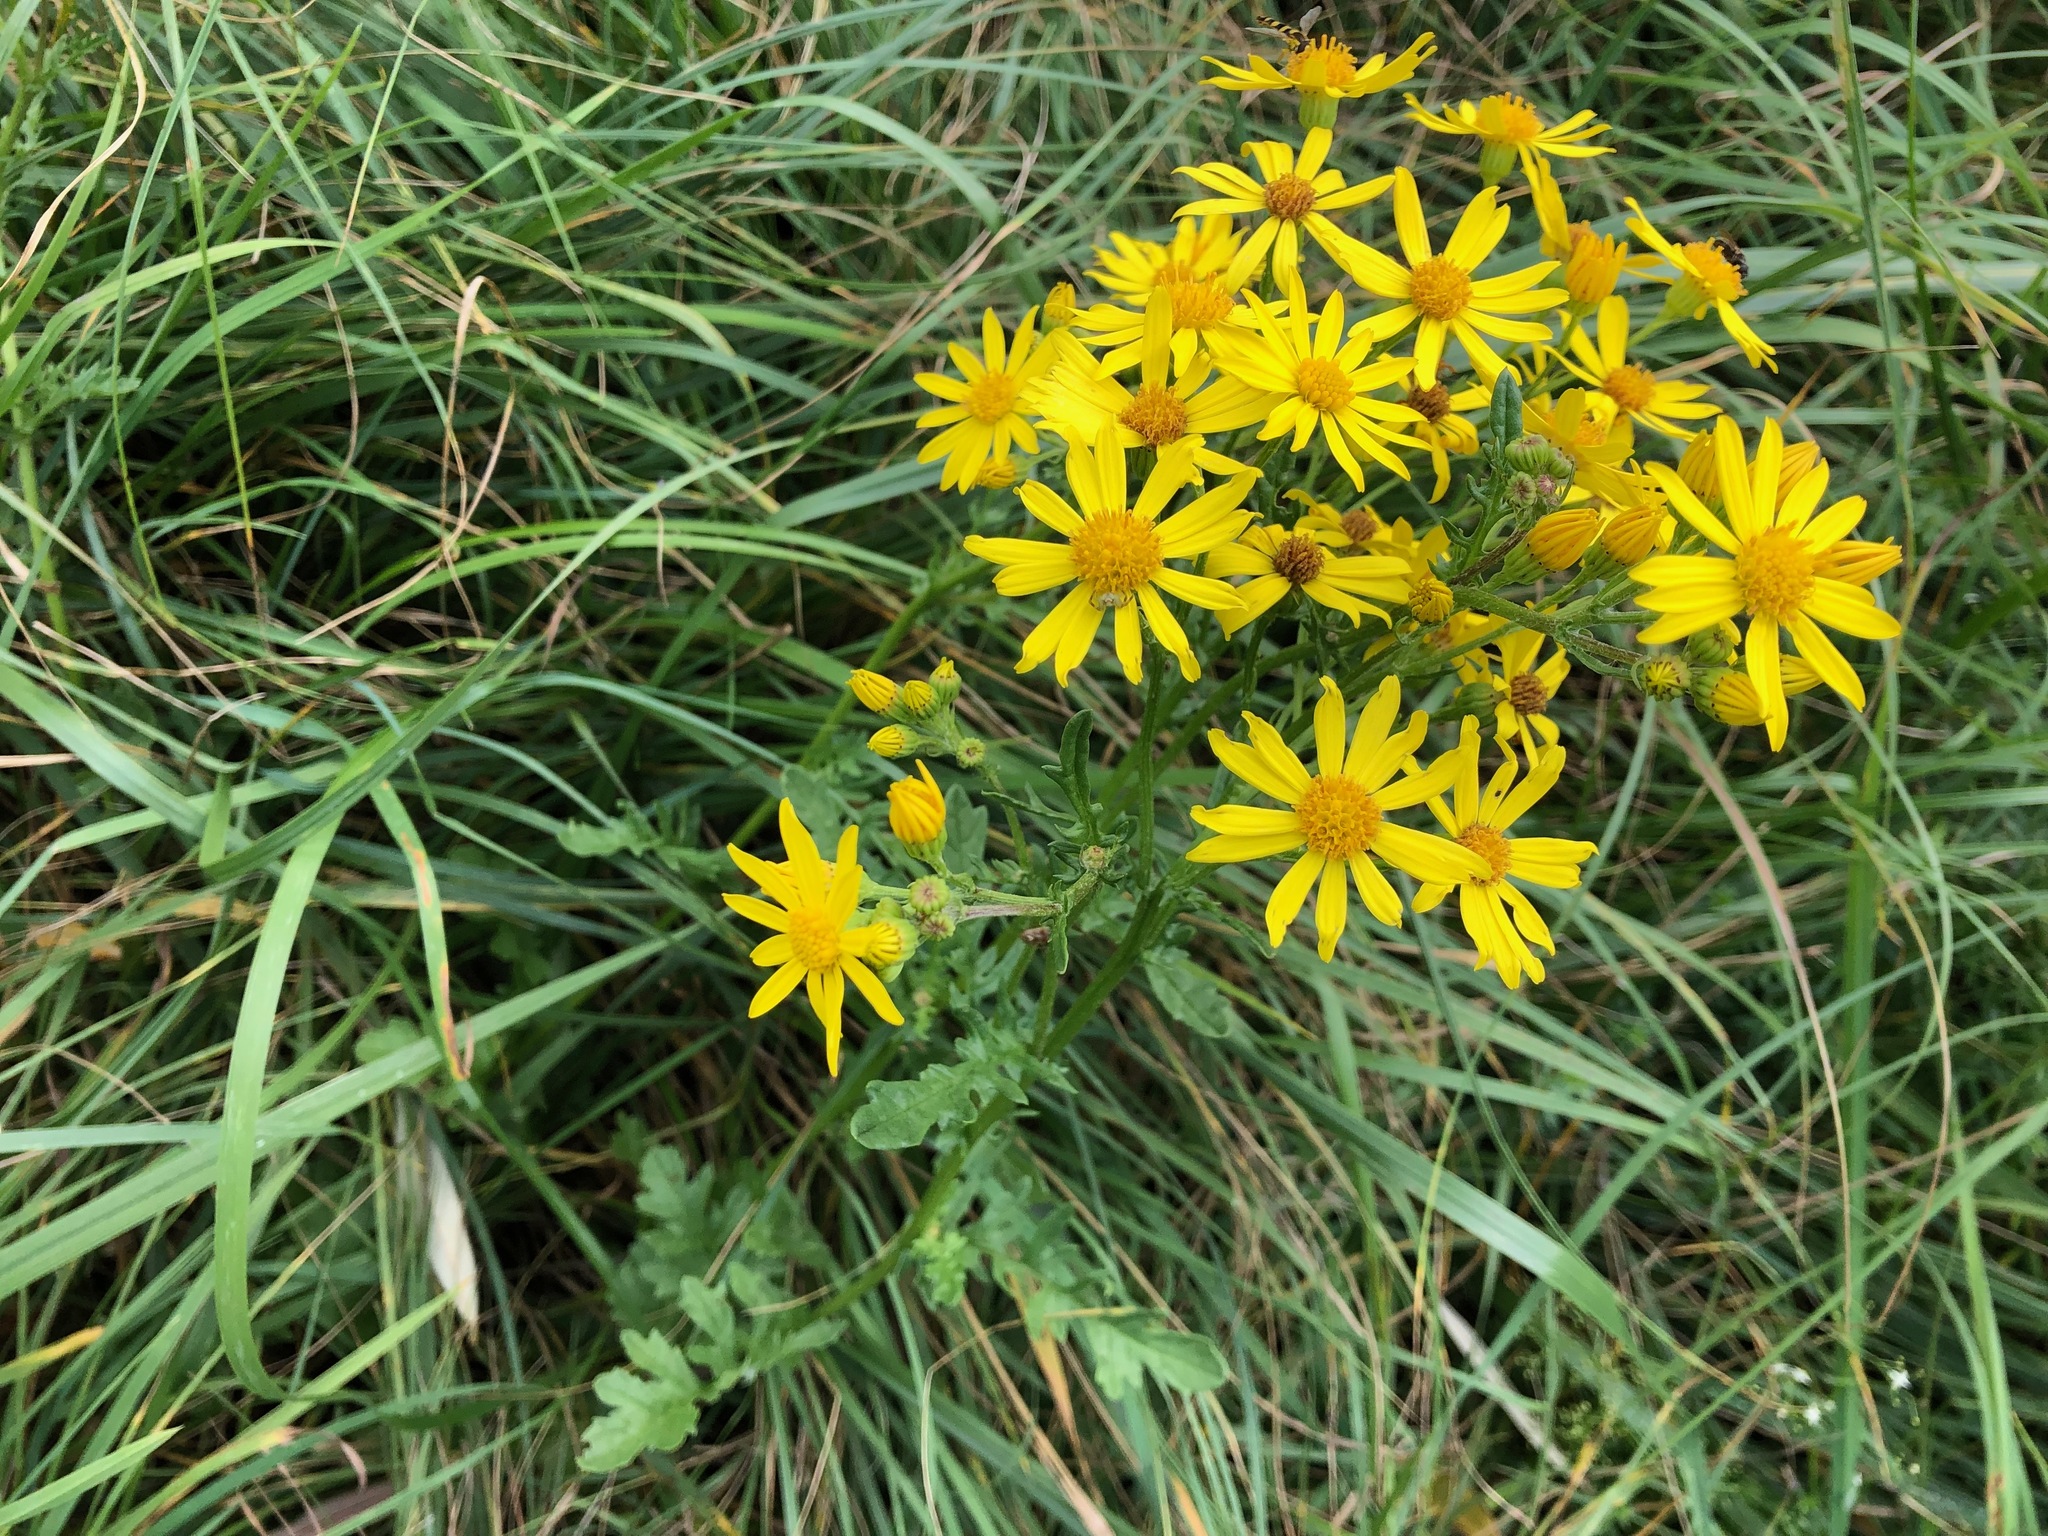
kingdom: Plantae
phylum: Tracheophyta
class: Magnoliopsida
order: Asterales
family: Asteraceae
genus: Jacobaea
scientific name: Jacobaea vulgaris
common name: Stinking willie
